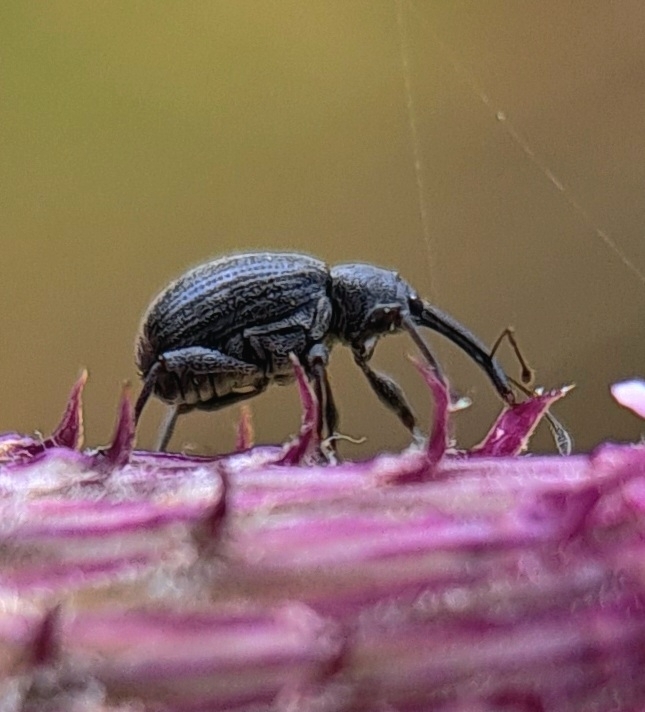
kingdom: Animalia
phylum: Arthropoda
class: Insecta
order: Coleoptera
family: Curculionidae
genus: Anthonomus
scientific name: Anthonomus rubi
